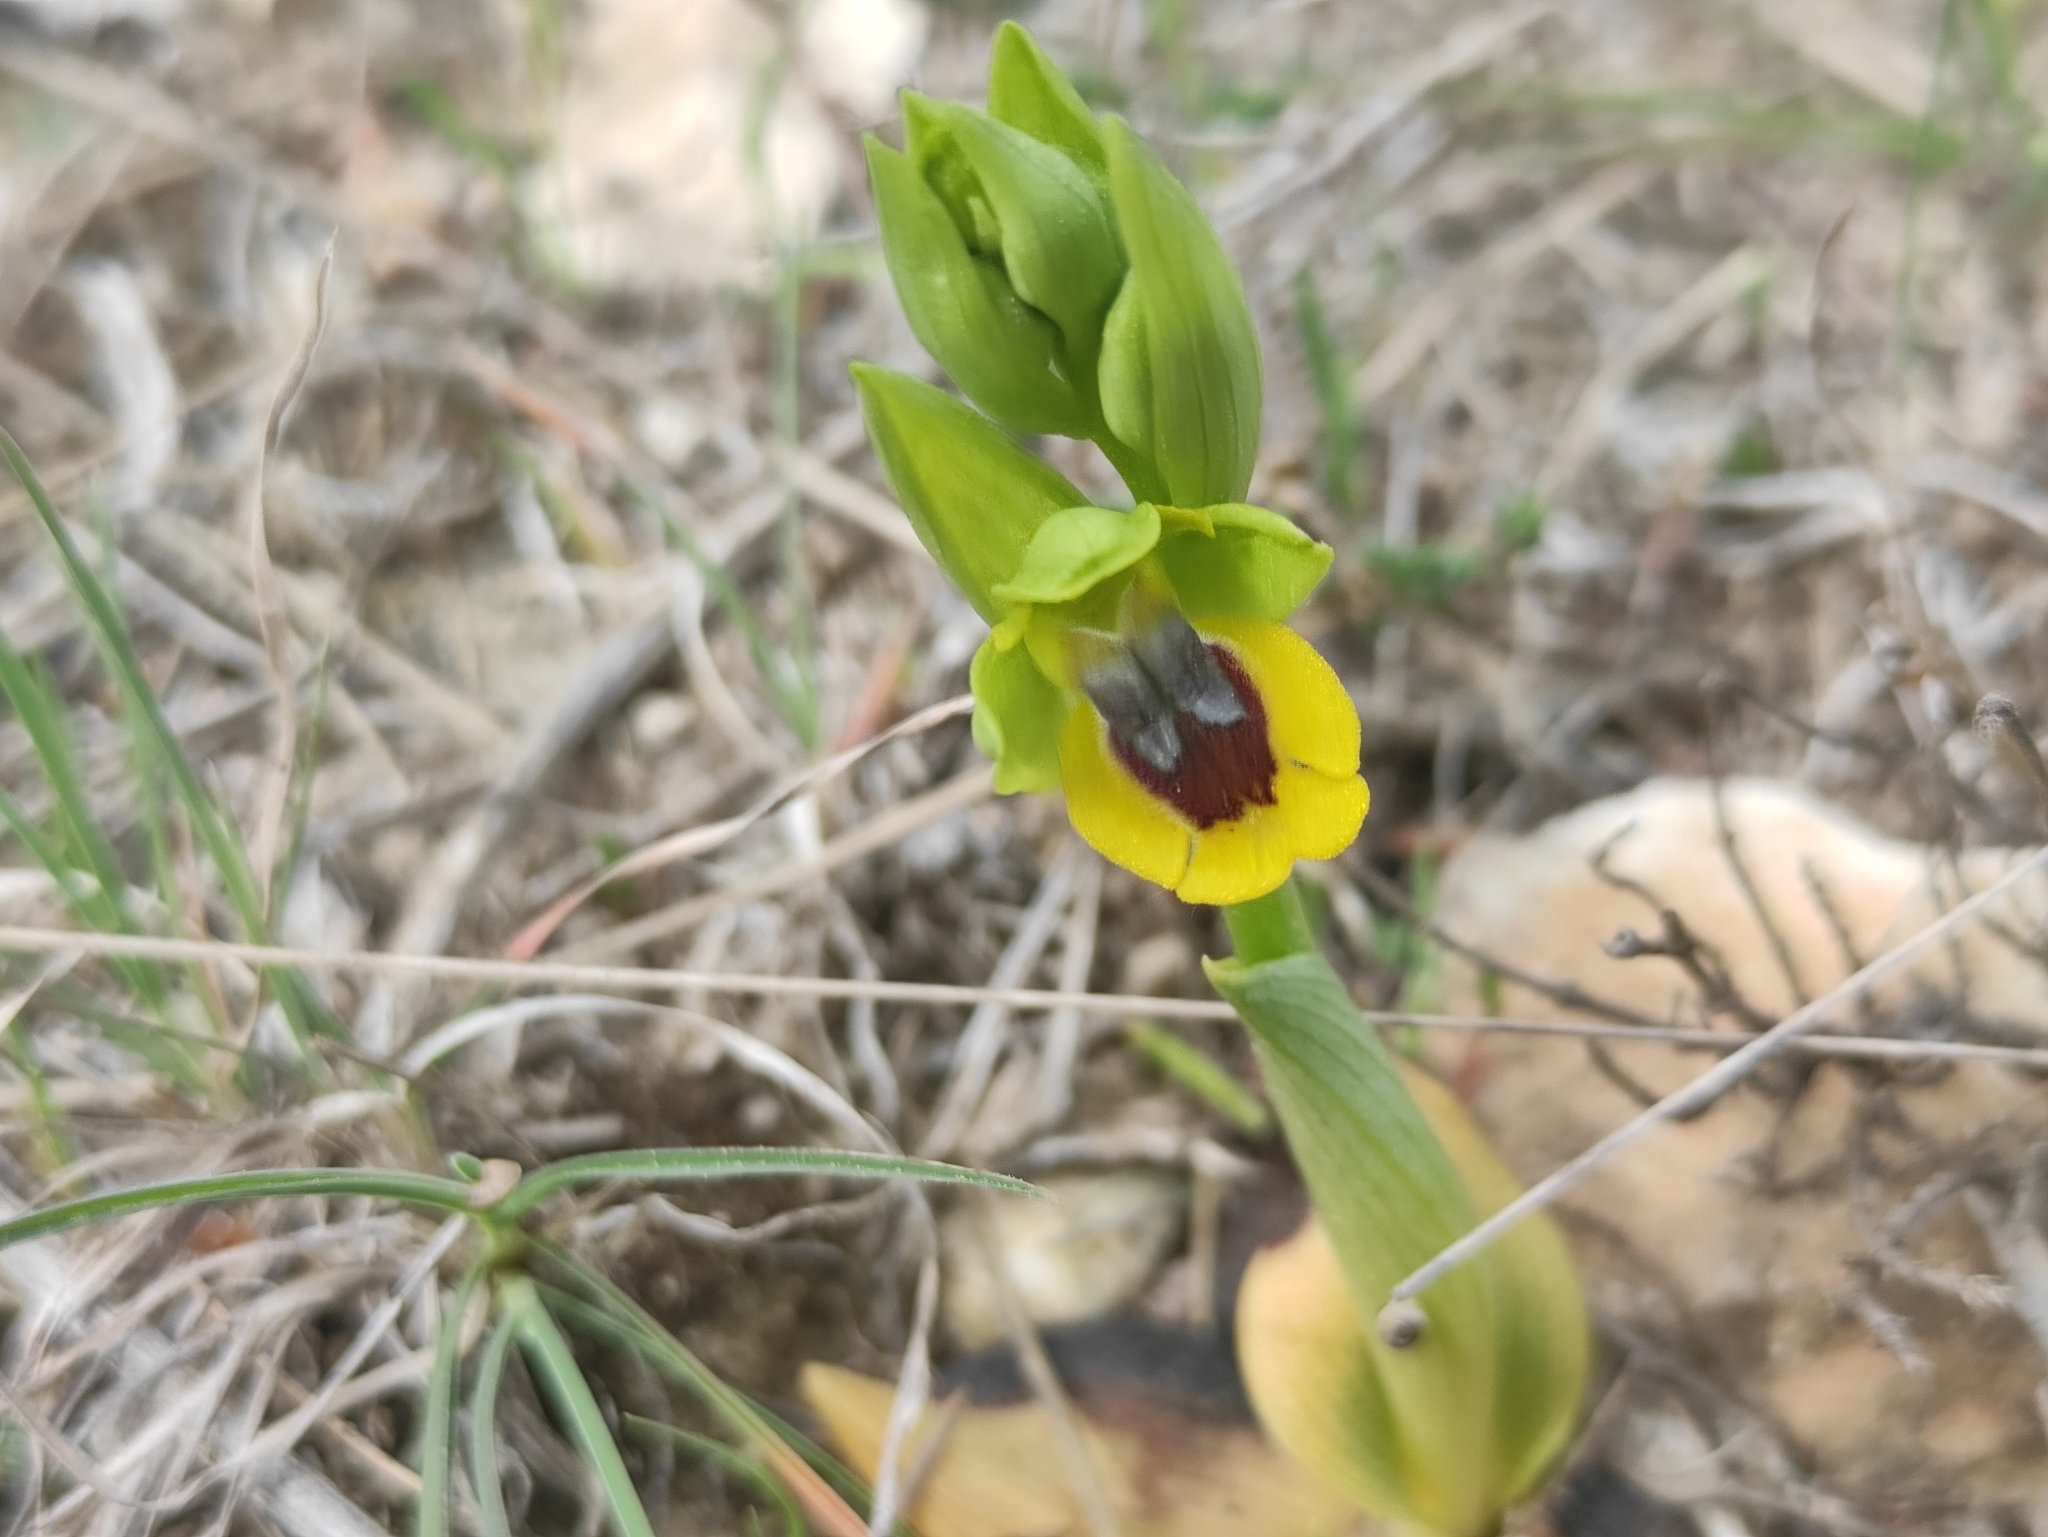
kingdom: Plantae
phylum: Tracheophyta
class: Liliopsida
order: Asparagales
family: Orchidaceae
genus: Ophrys
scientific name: Ophrys lutea
